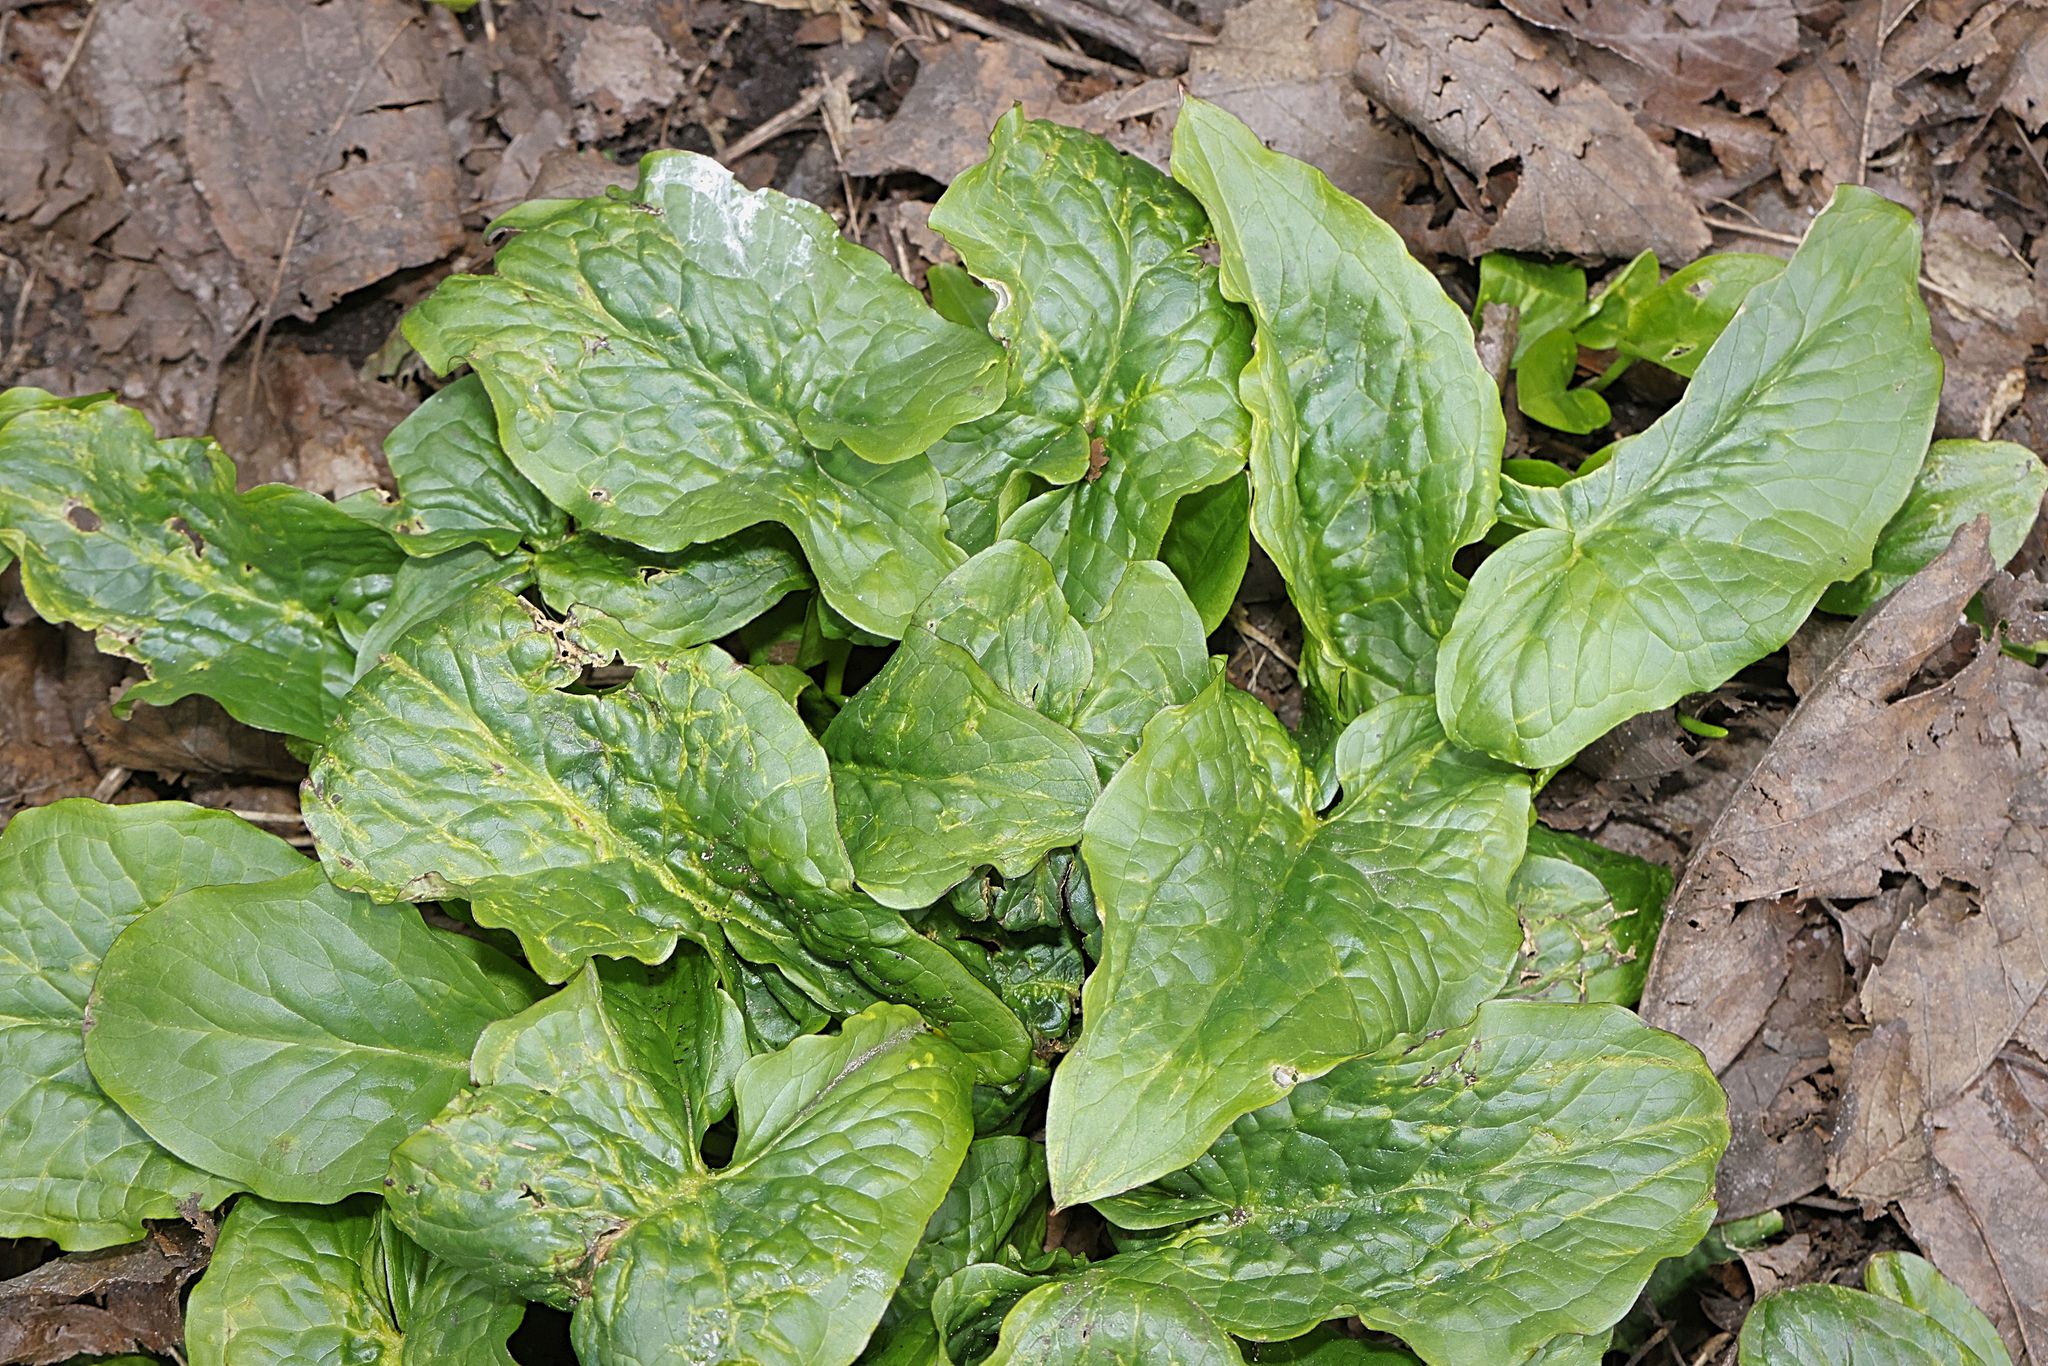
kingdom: Plantae
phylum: Tracheophyta
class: Liliopsida
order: Alismatales
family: Araceae
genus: Arum
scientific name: Arum maculatum
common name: Lords-and-ladies
